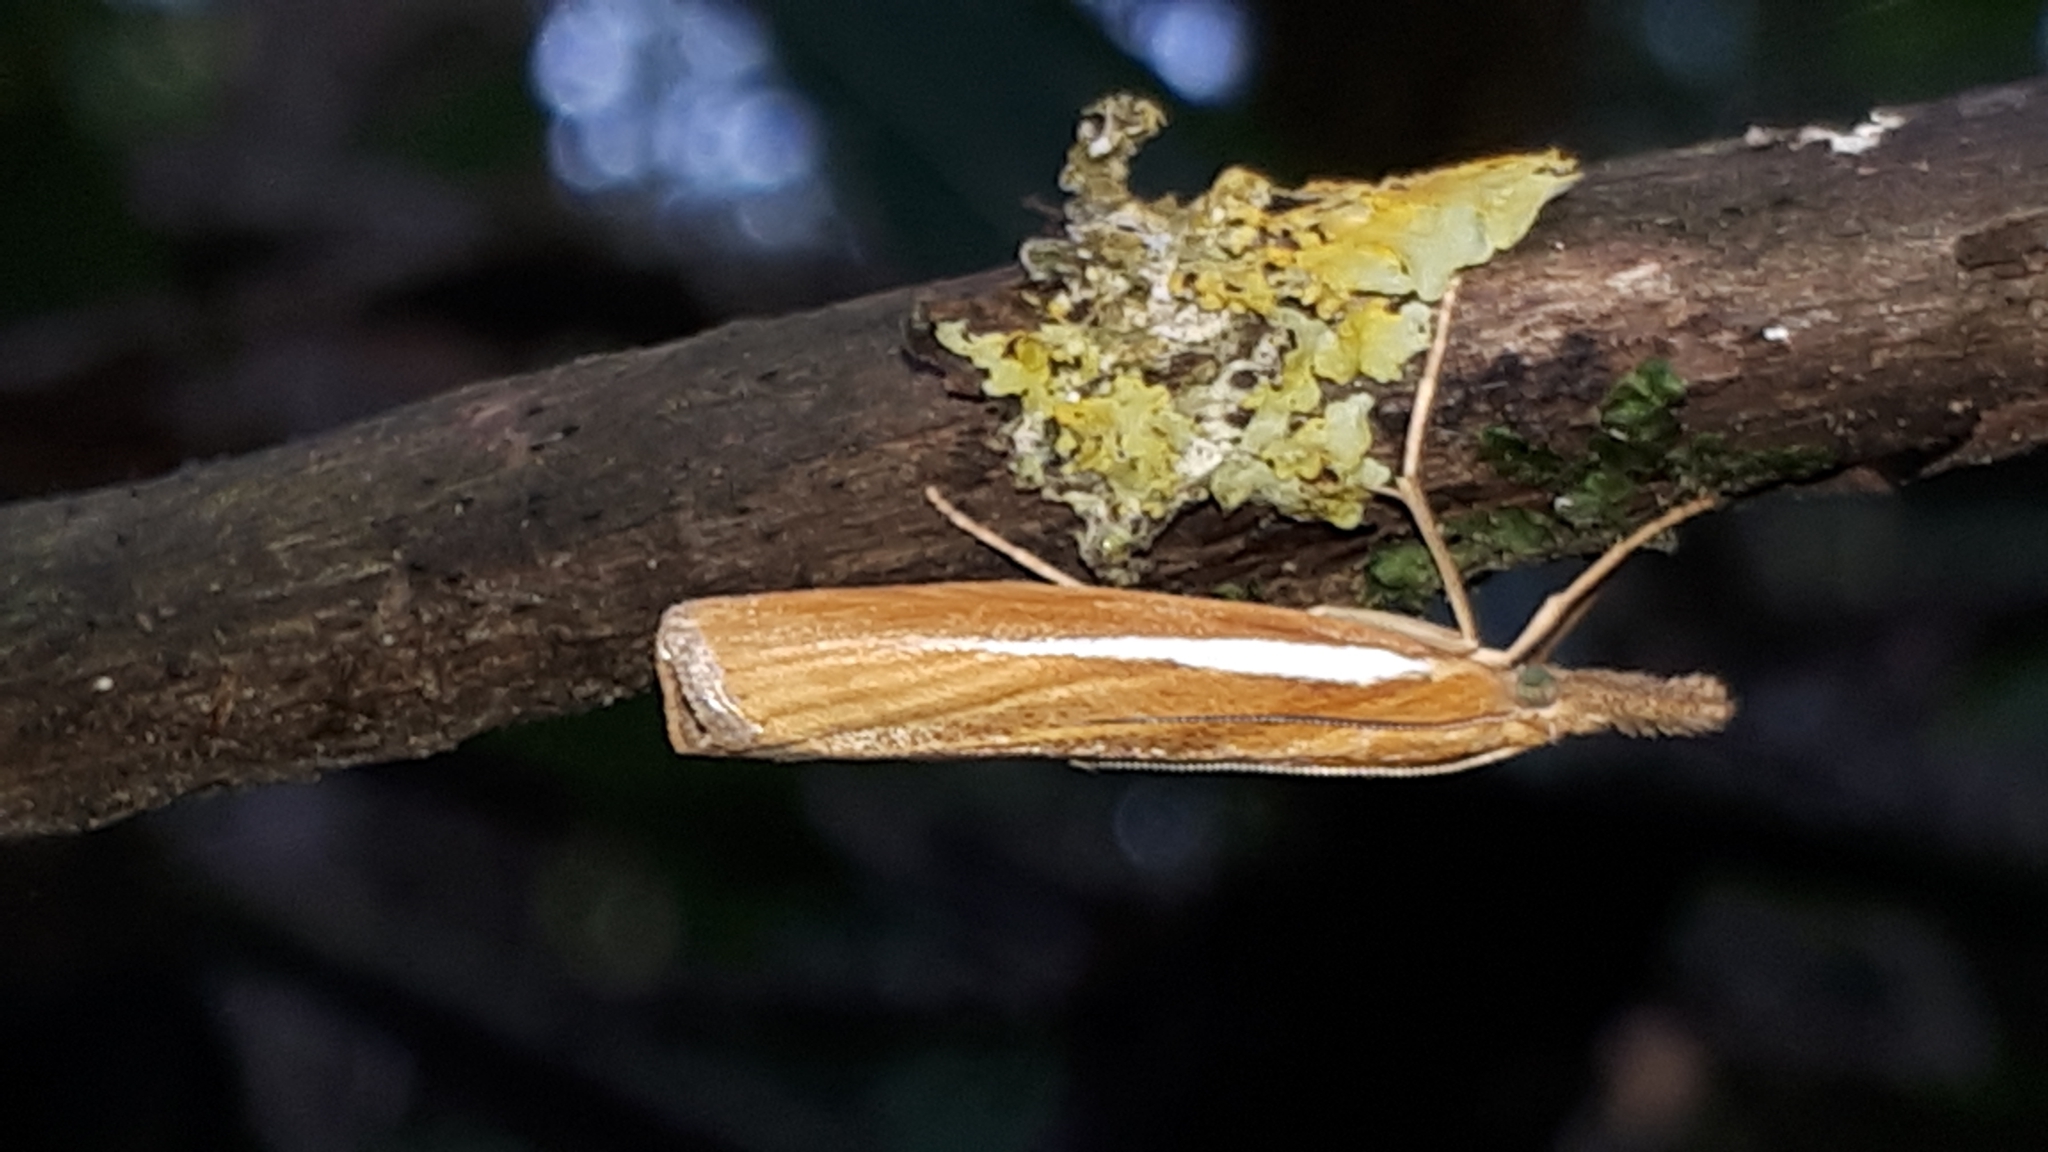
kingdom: Animalia
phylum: Arthropoda
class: Insecta
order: Lepidoptera
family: Crambidae
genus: Agriphila
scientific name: Agriphila tristellus
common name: Common grass-veneer
